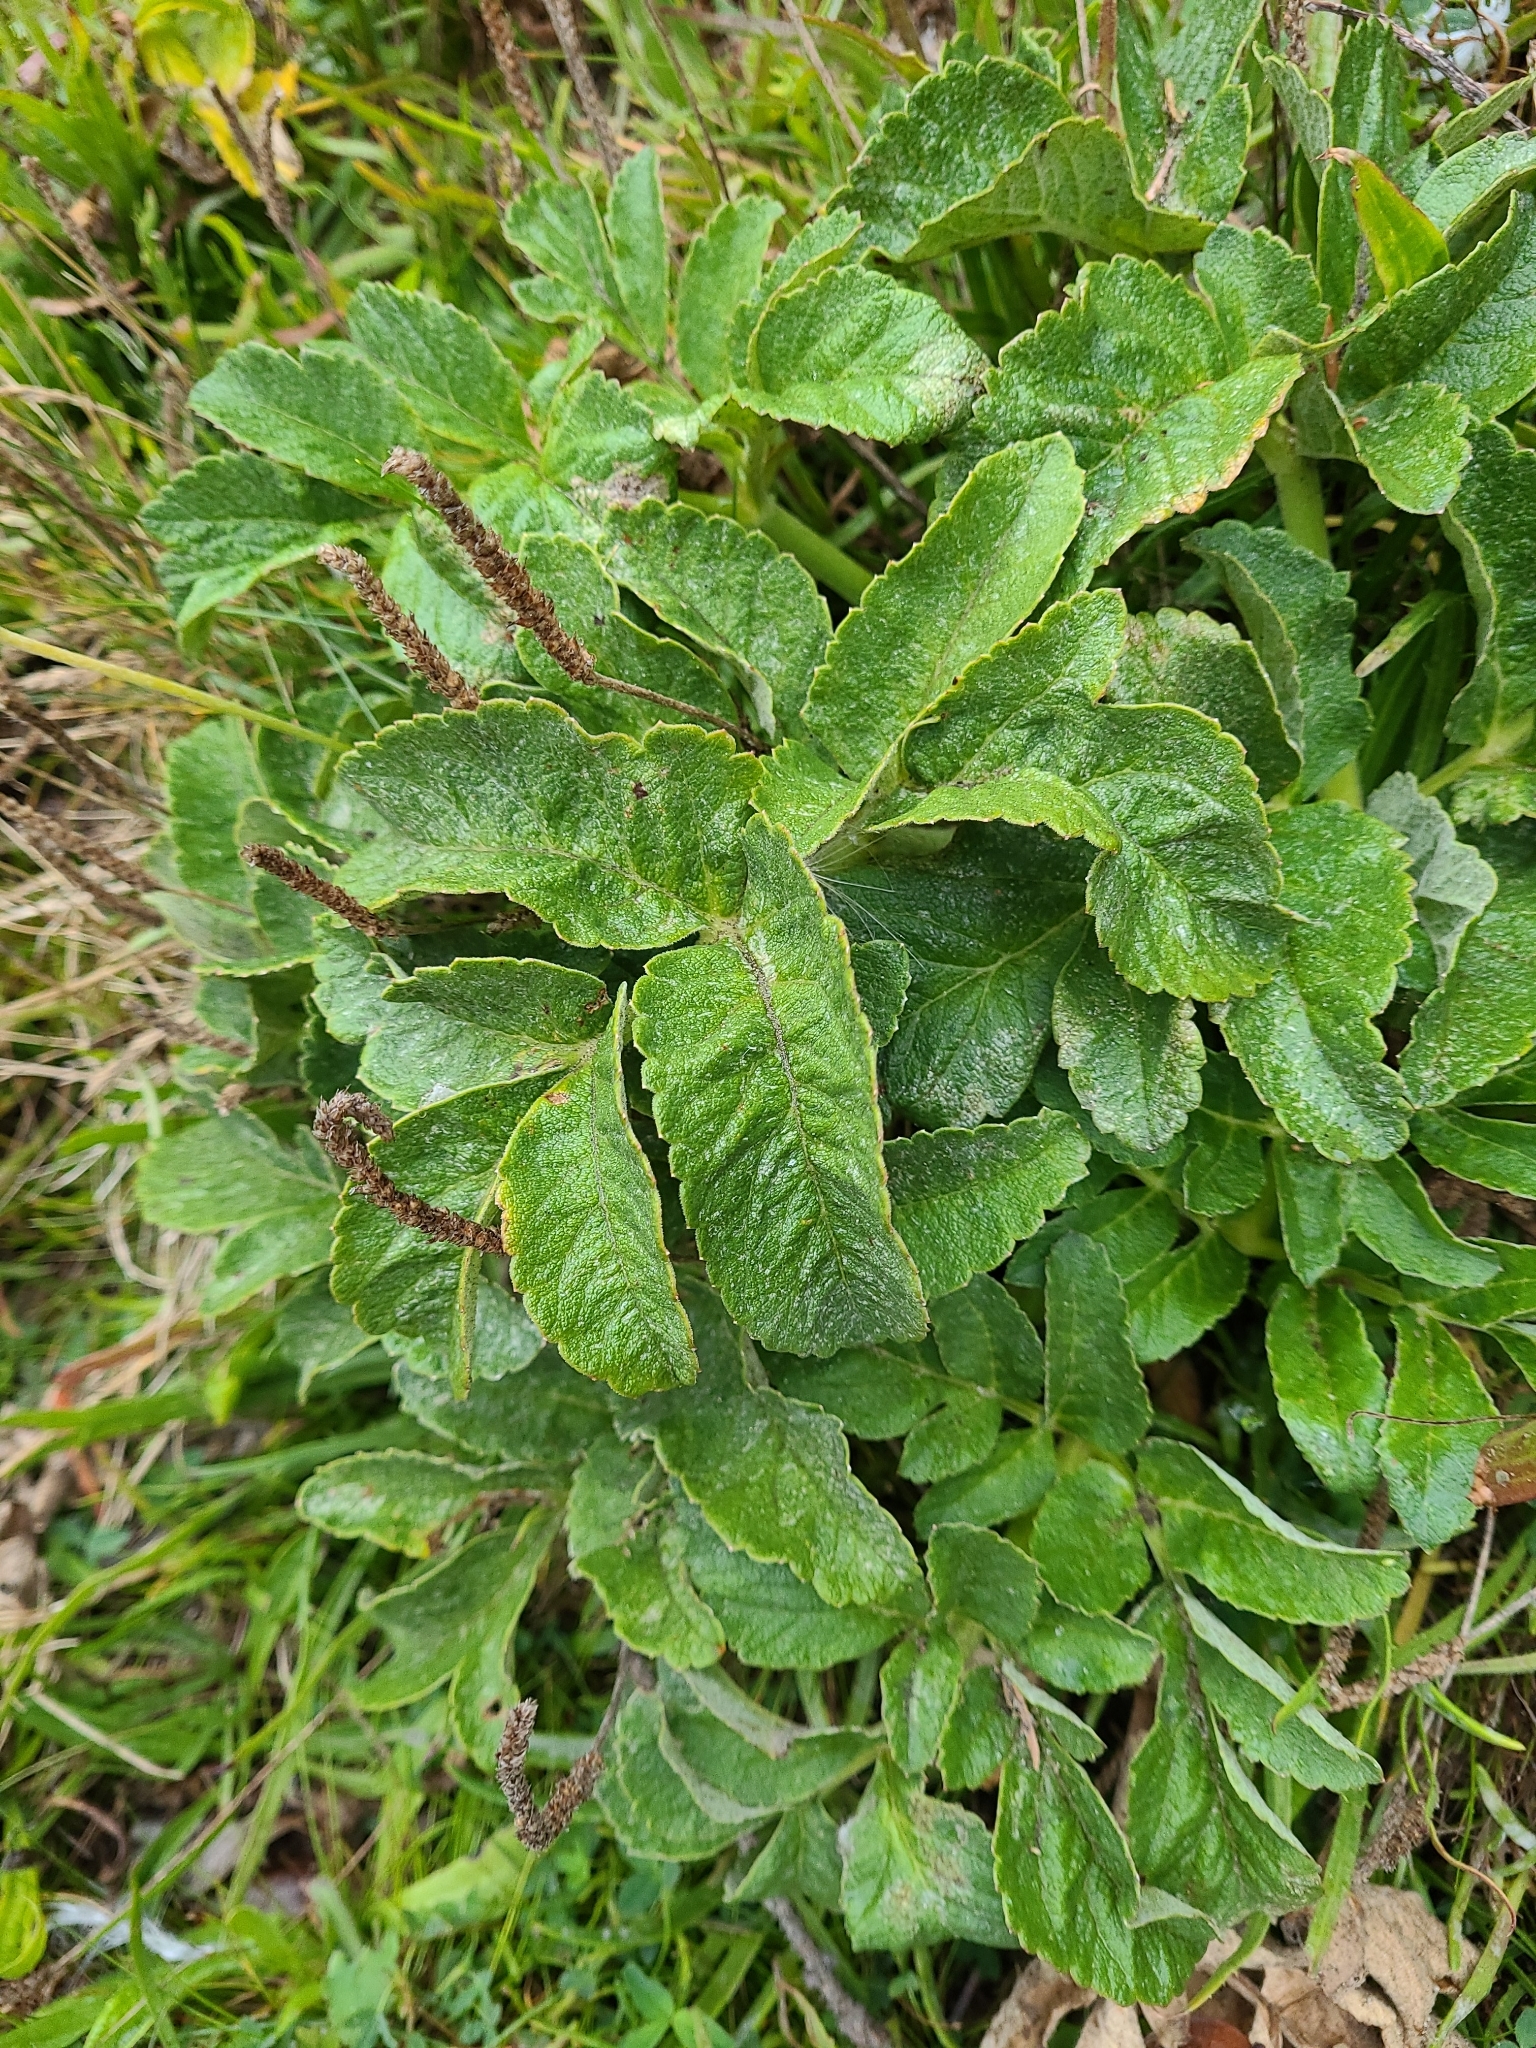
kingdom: Plantae
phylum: Tracheophyta
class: Magnoliopsida
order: Apiales
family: Apiaceae
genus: Angelica
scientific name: Angelica hendersonii
